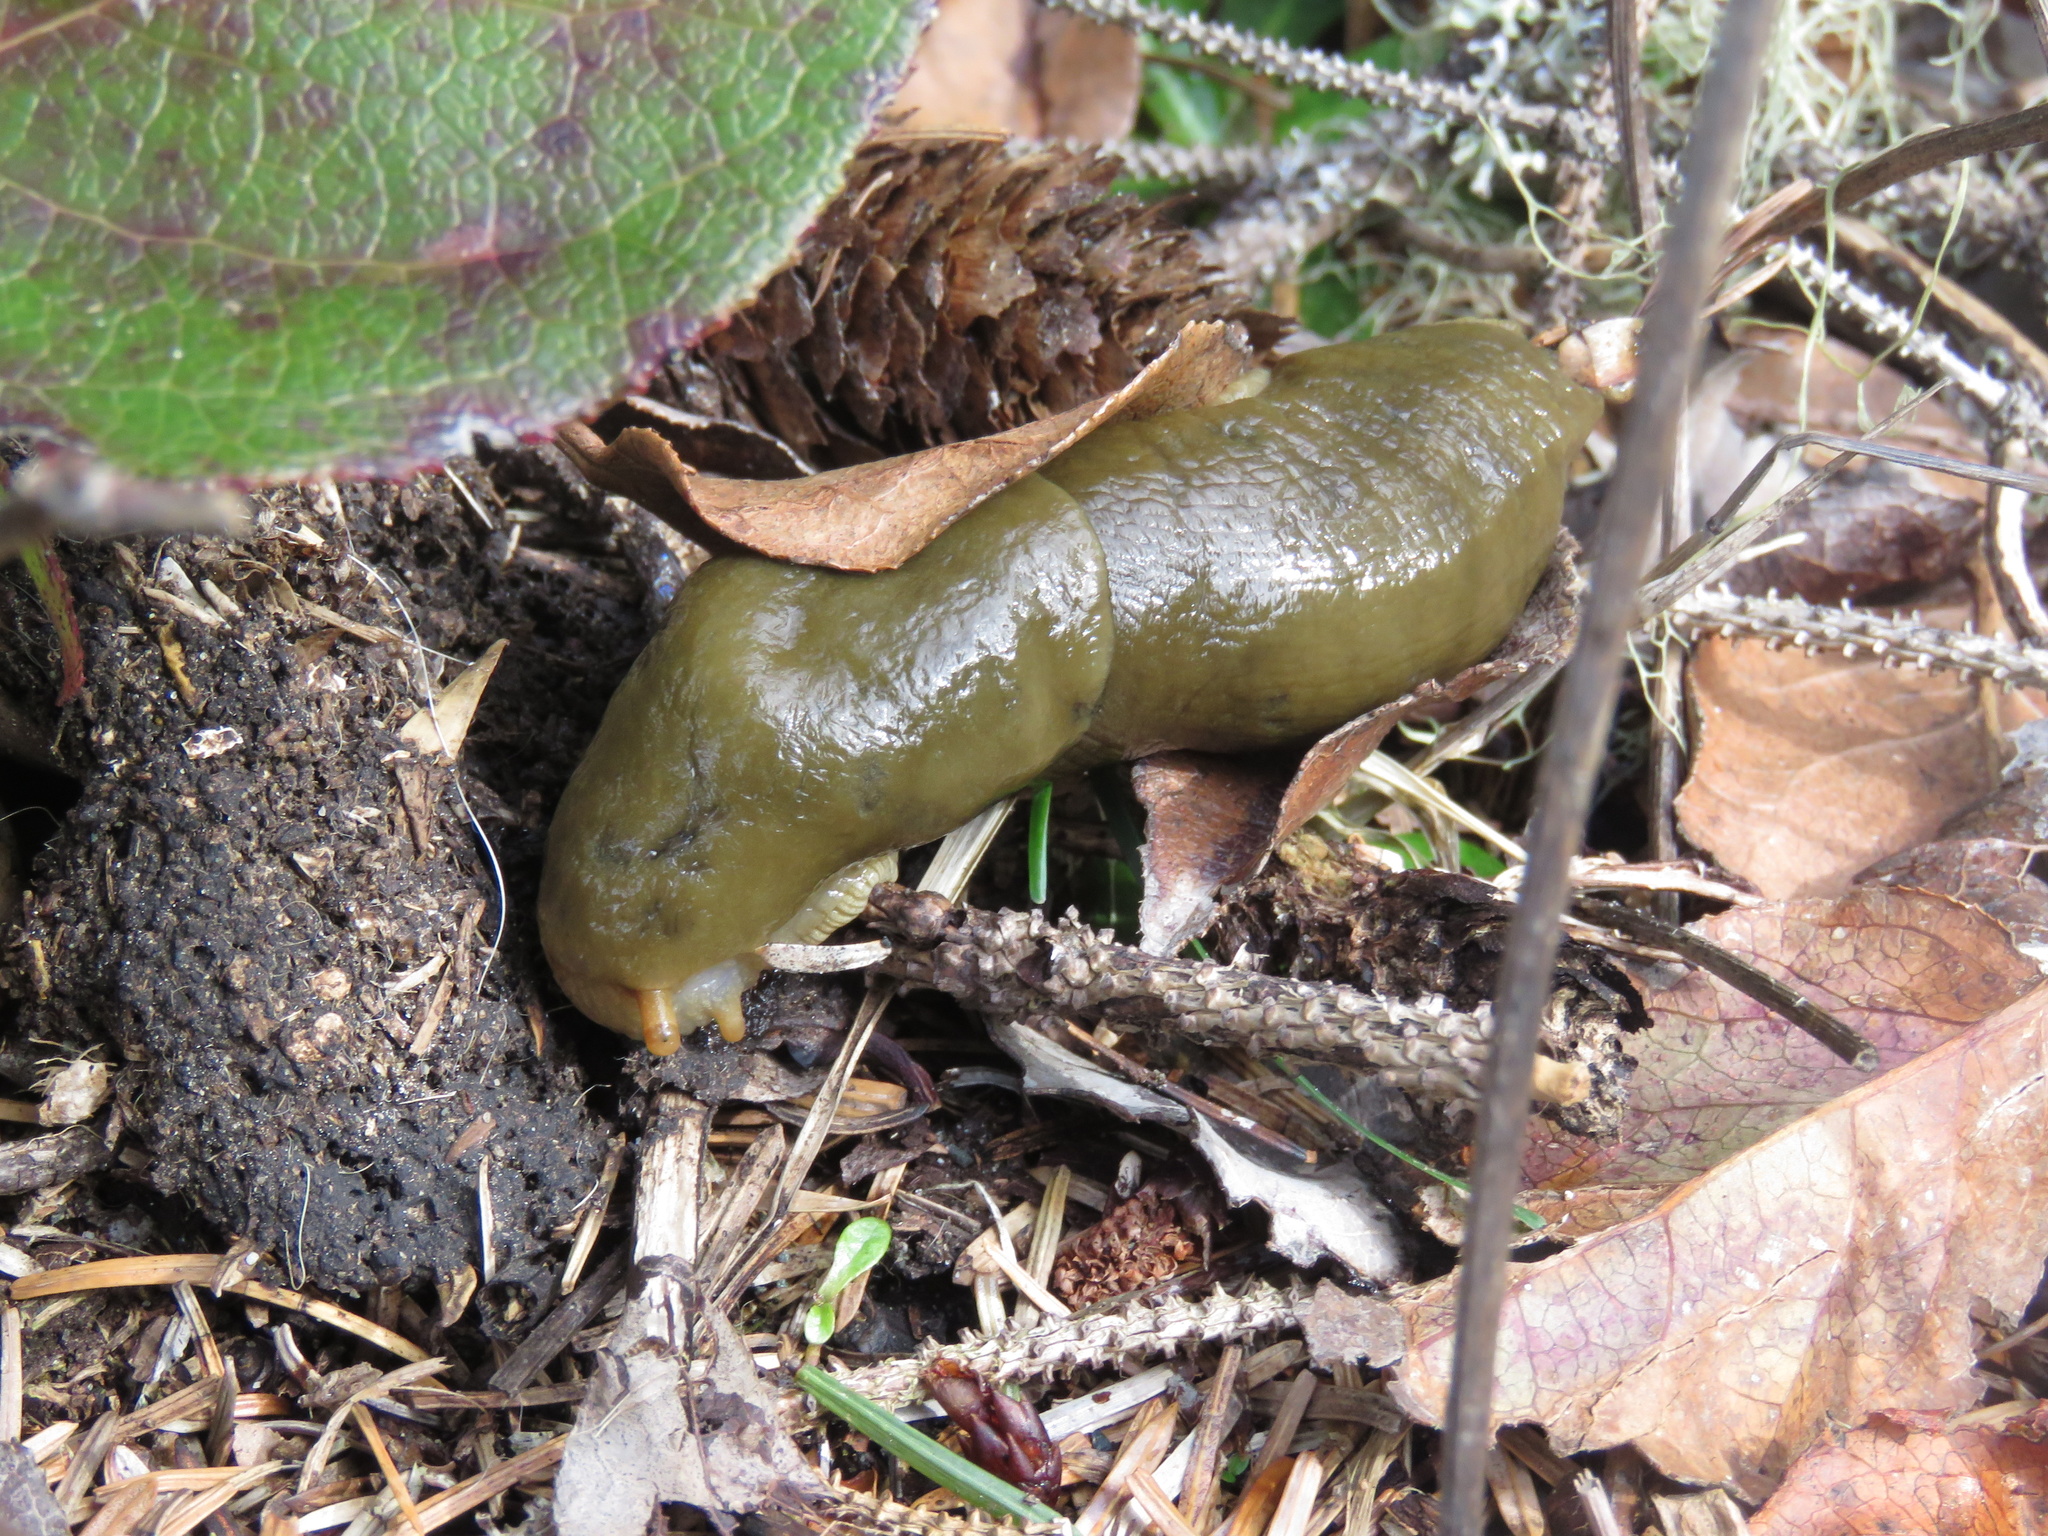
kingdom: Animalia
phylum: Mollusca
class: Gastropoda
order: Stylommatophora
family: Ariolimacidae
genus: Ariolimax
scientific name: Ariolimax columbianus
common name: Pacific banana slug
